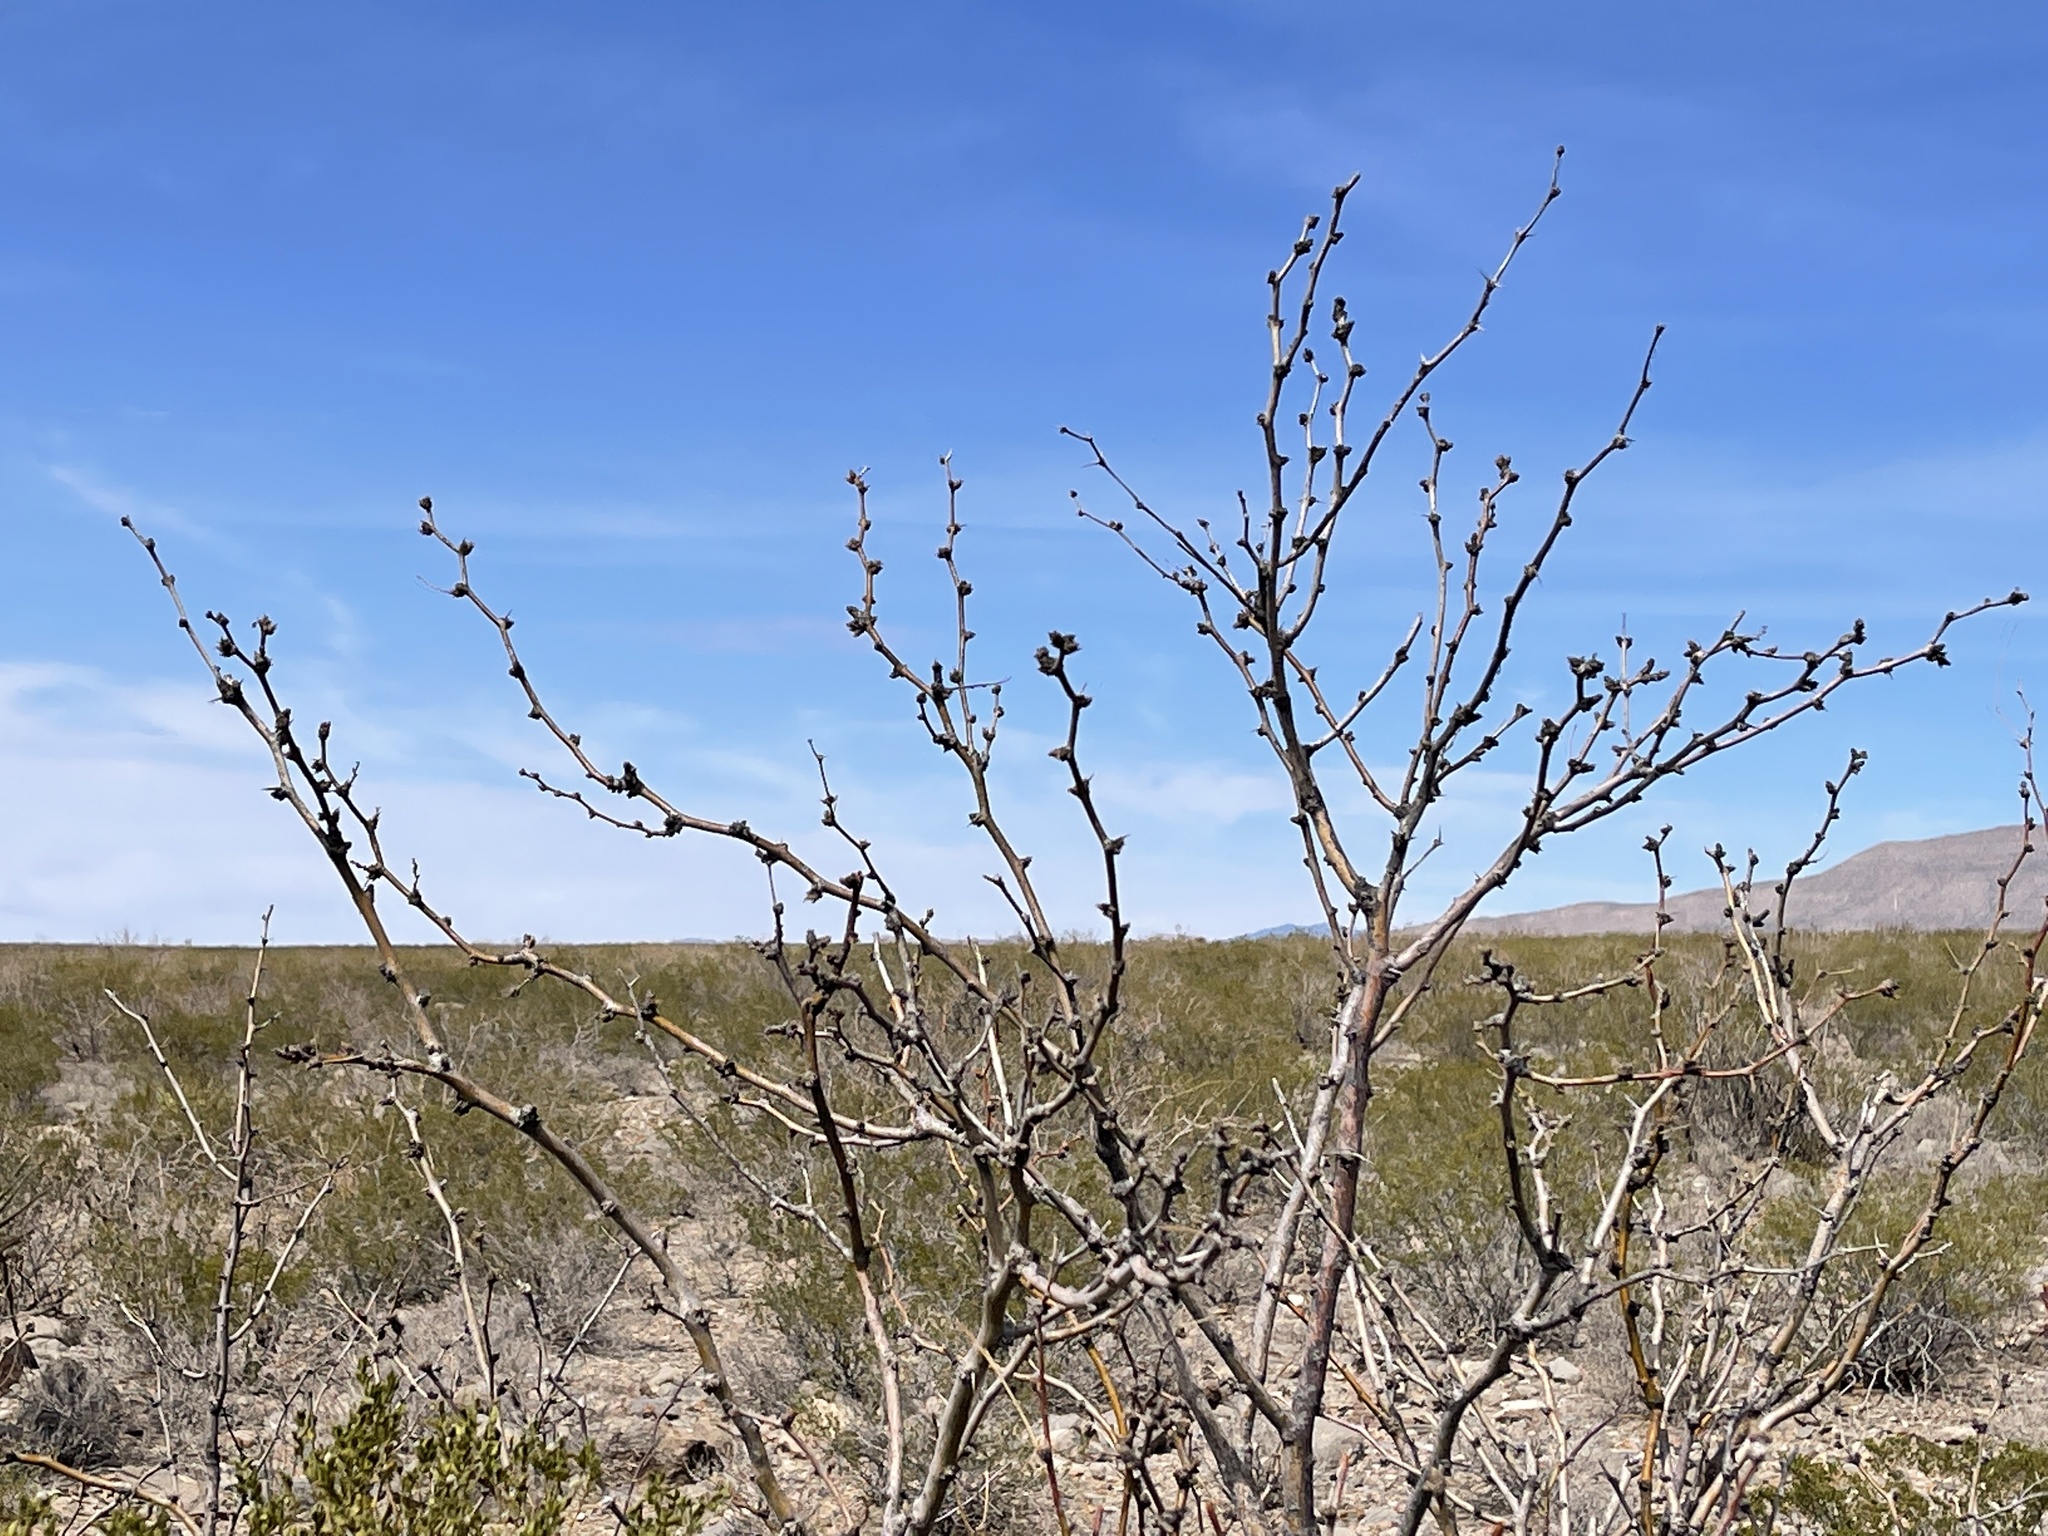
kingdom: Plantae
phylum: Tracheophyta
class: Magnoliopsida
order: Fabales
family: Fabaceae
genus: Prosopis
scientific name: Prosopis glandulosa
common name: Honey mesquite
